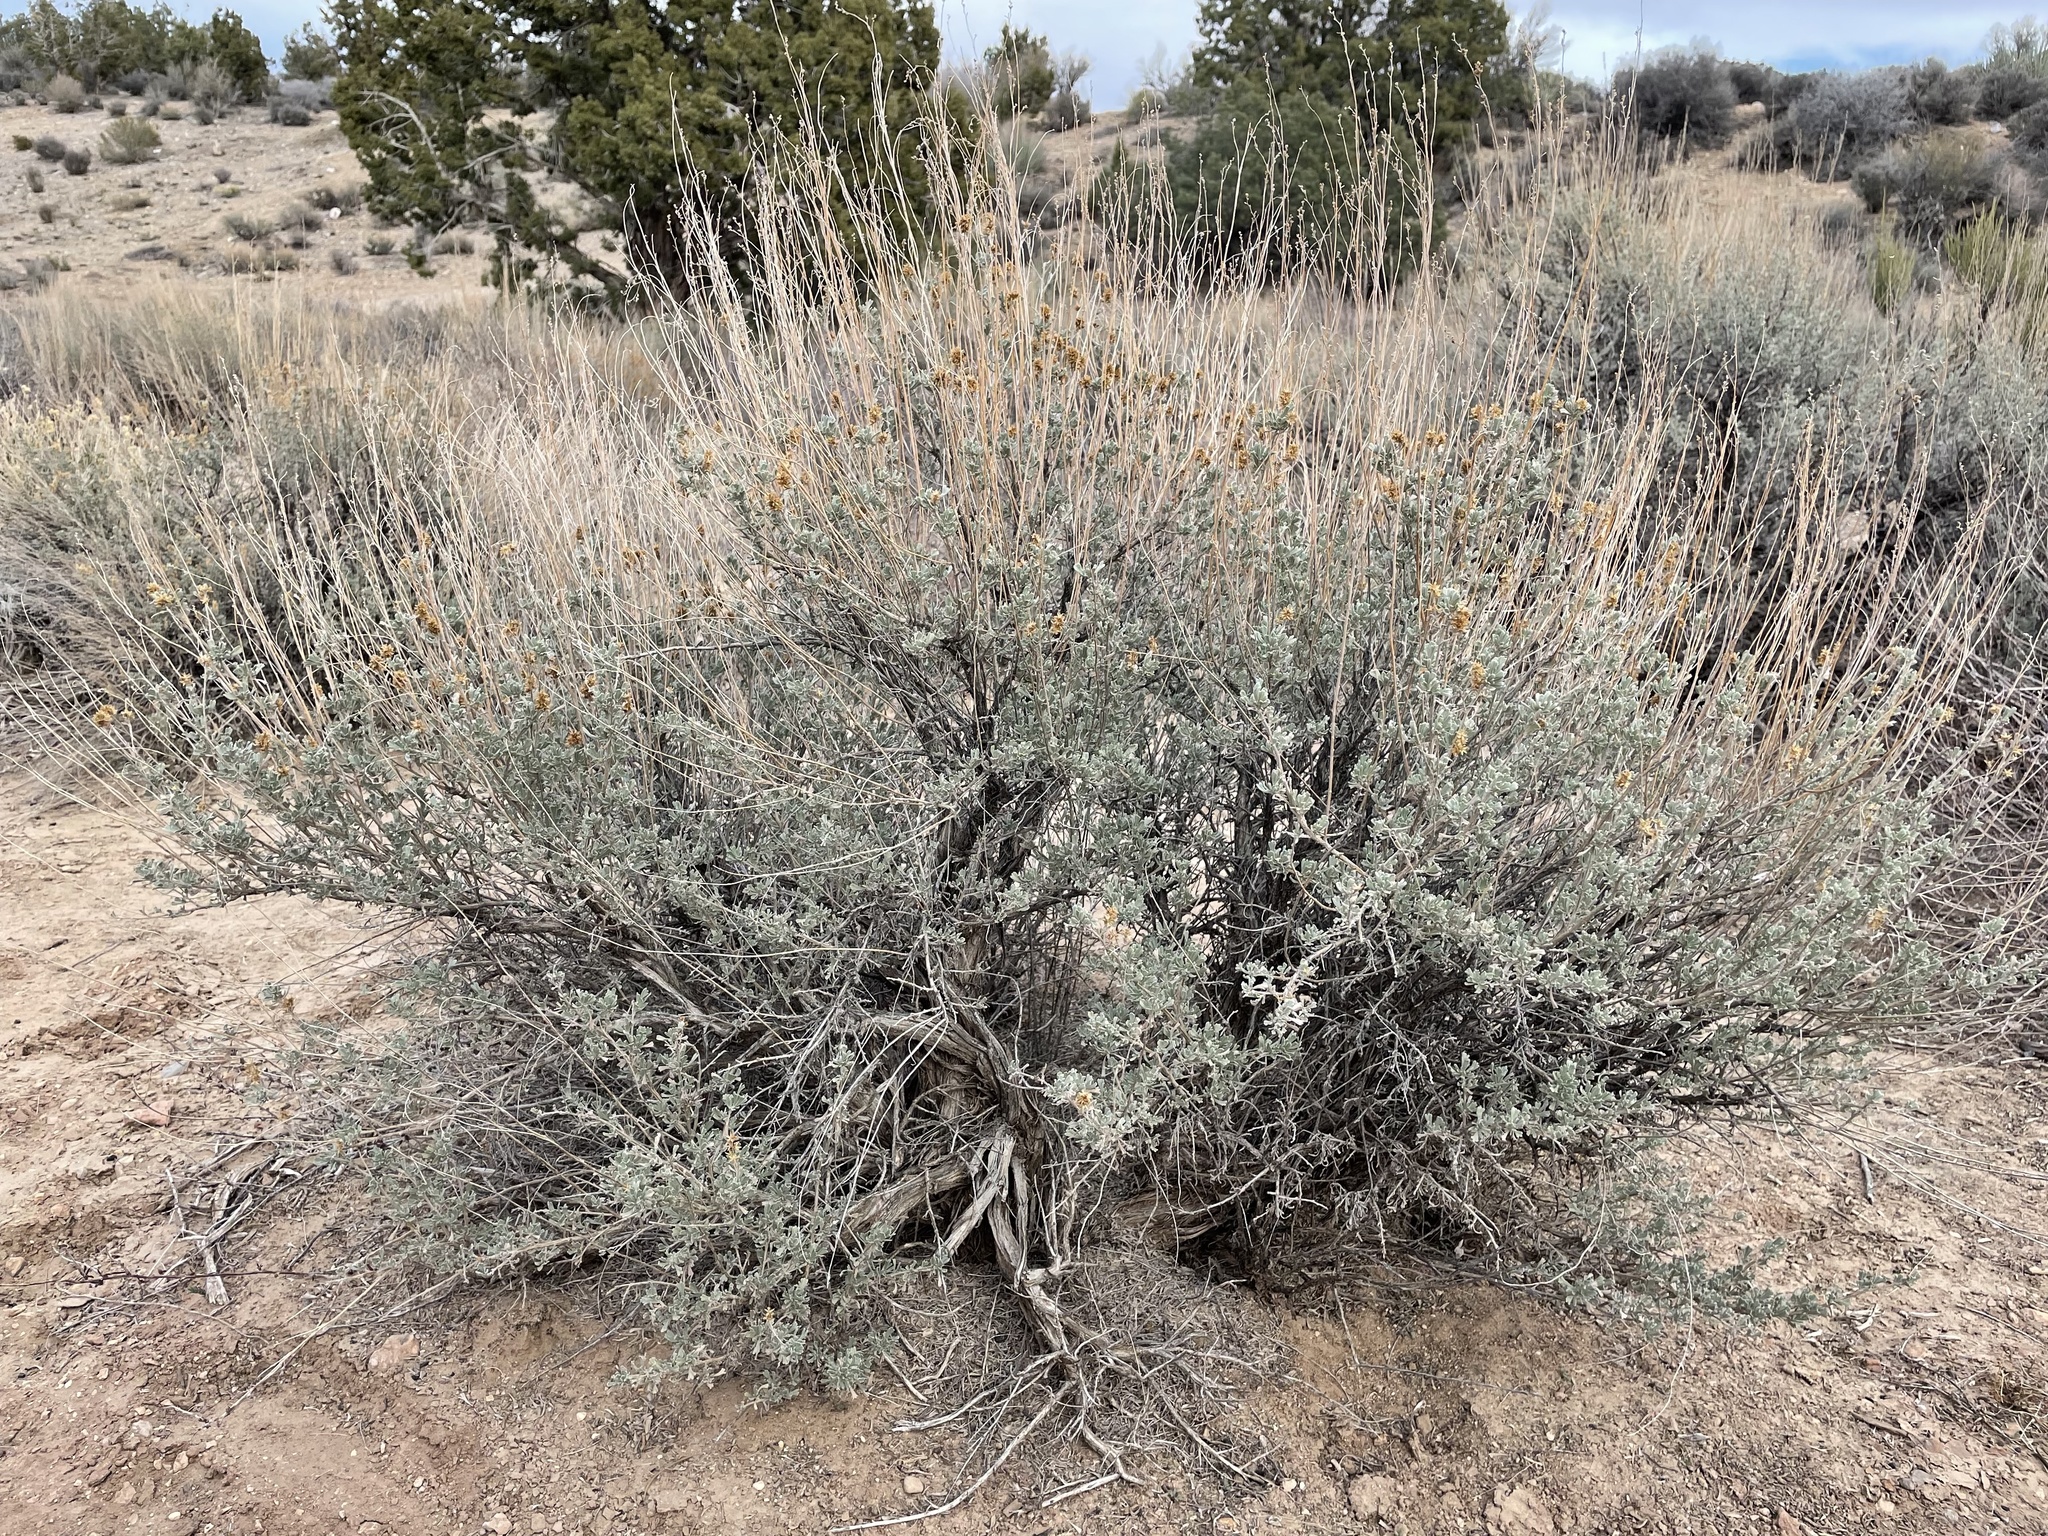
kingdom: Plantae
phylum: Tracheophyta
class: Magnoliopsida
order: Asterales
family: Asteraceae
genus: Artemisia
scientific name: Artemisia tridentata
